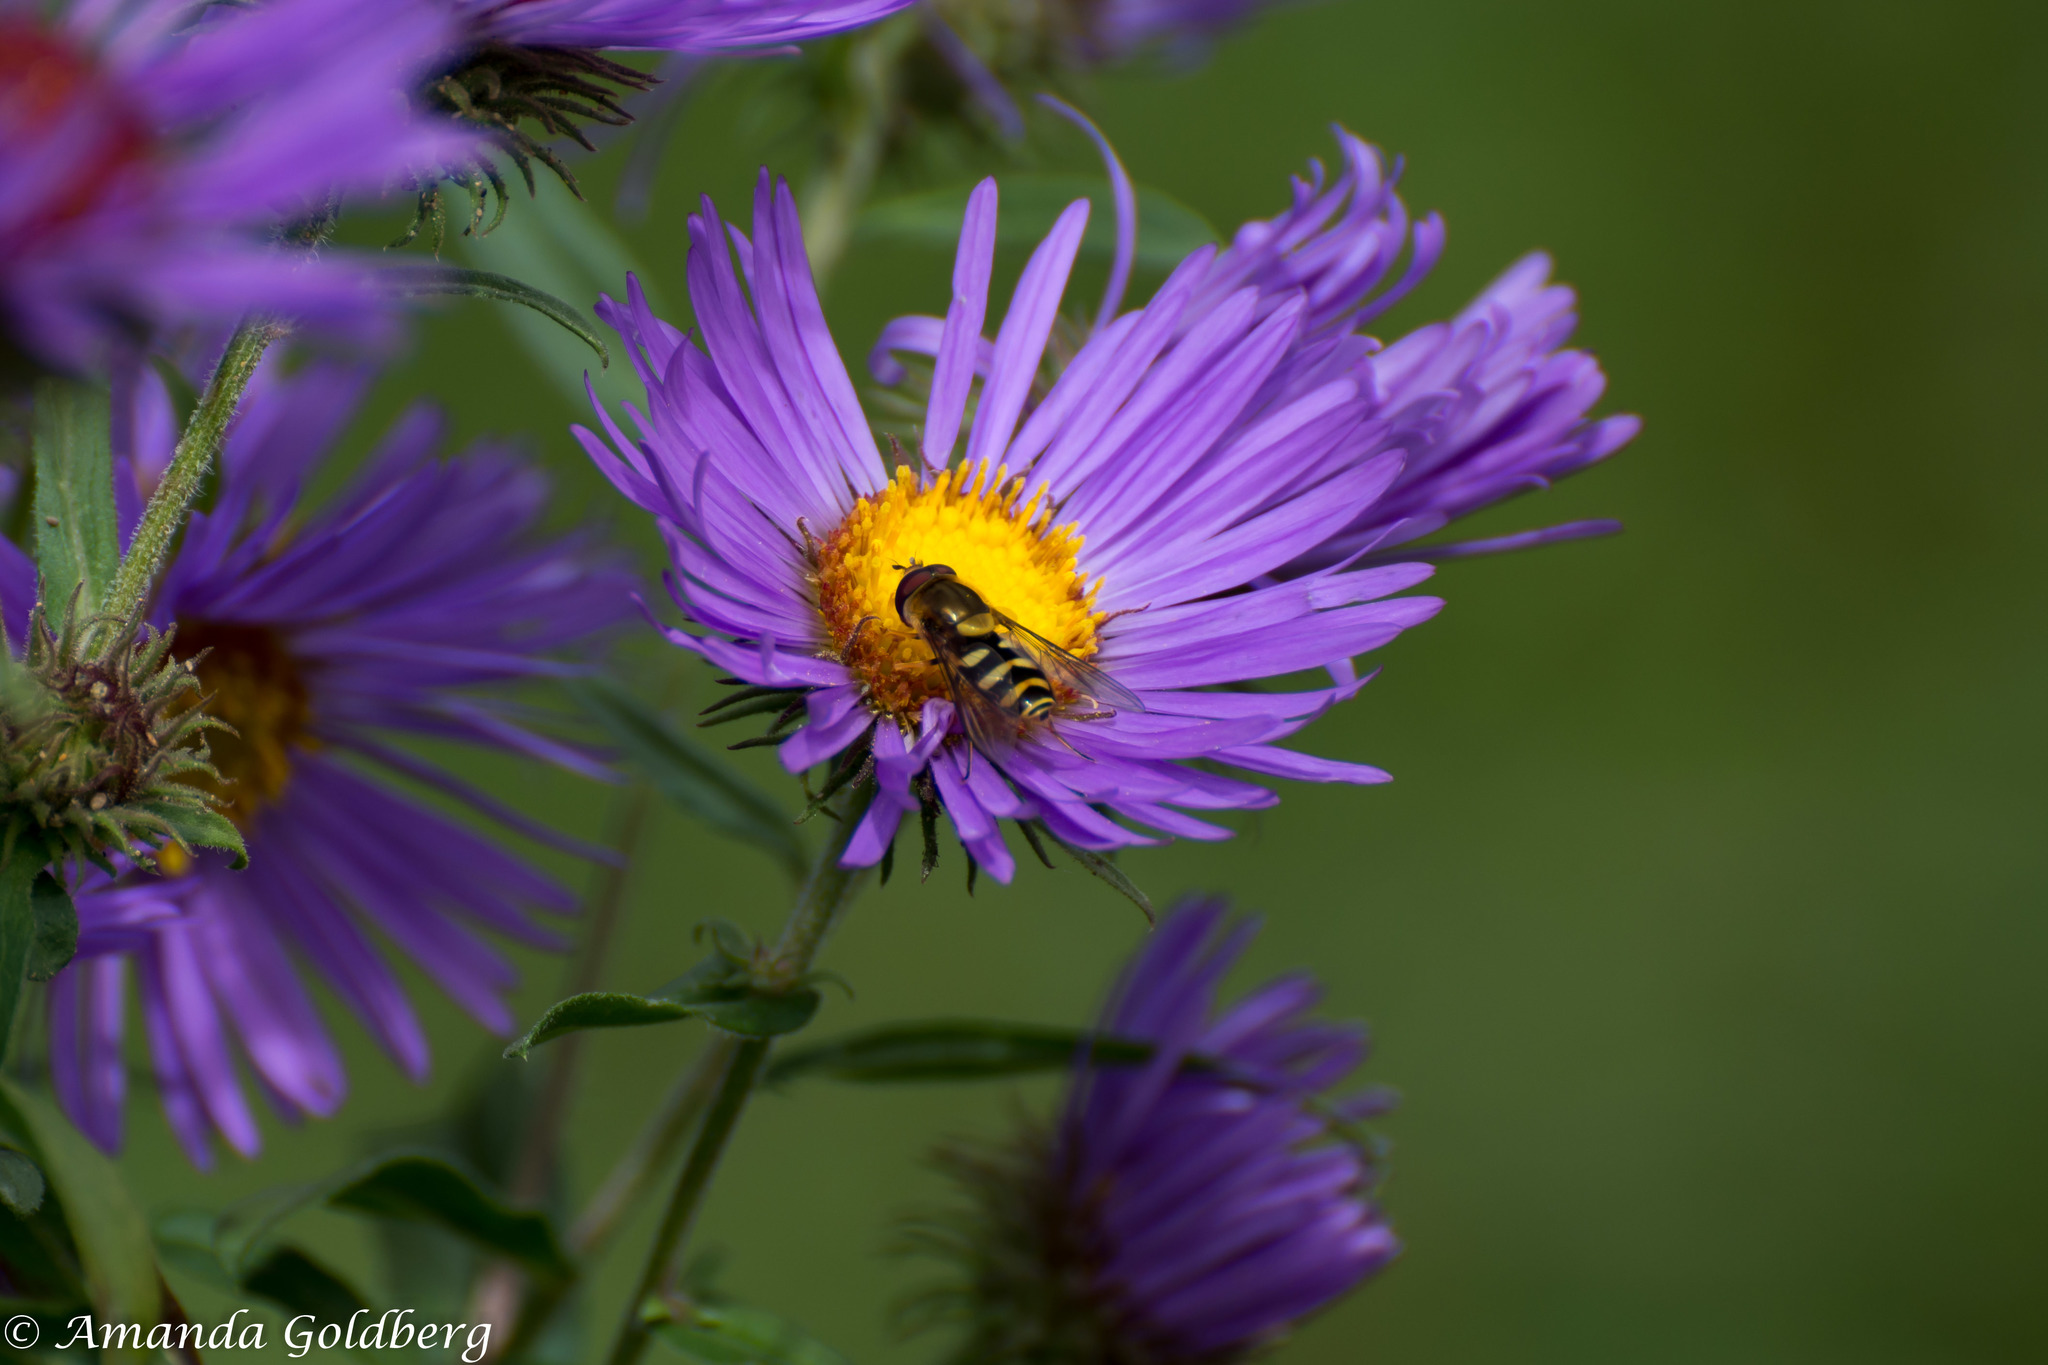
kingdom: Animalia
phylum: Arthropoda
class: Insecta
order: Diptera
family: Syrphidae
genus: Syrphus
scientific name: Syrphus opinator
